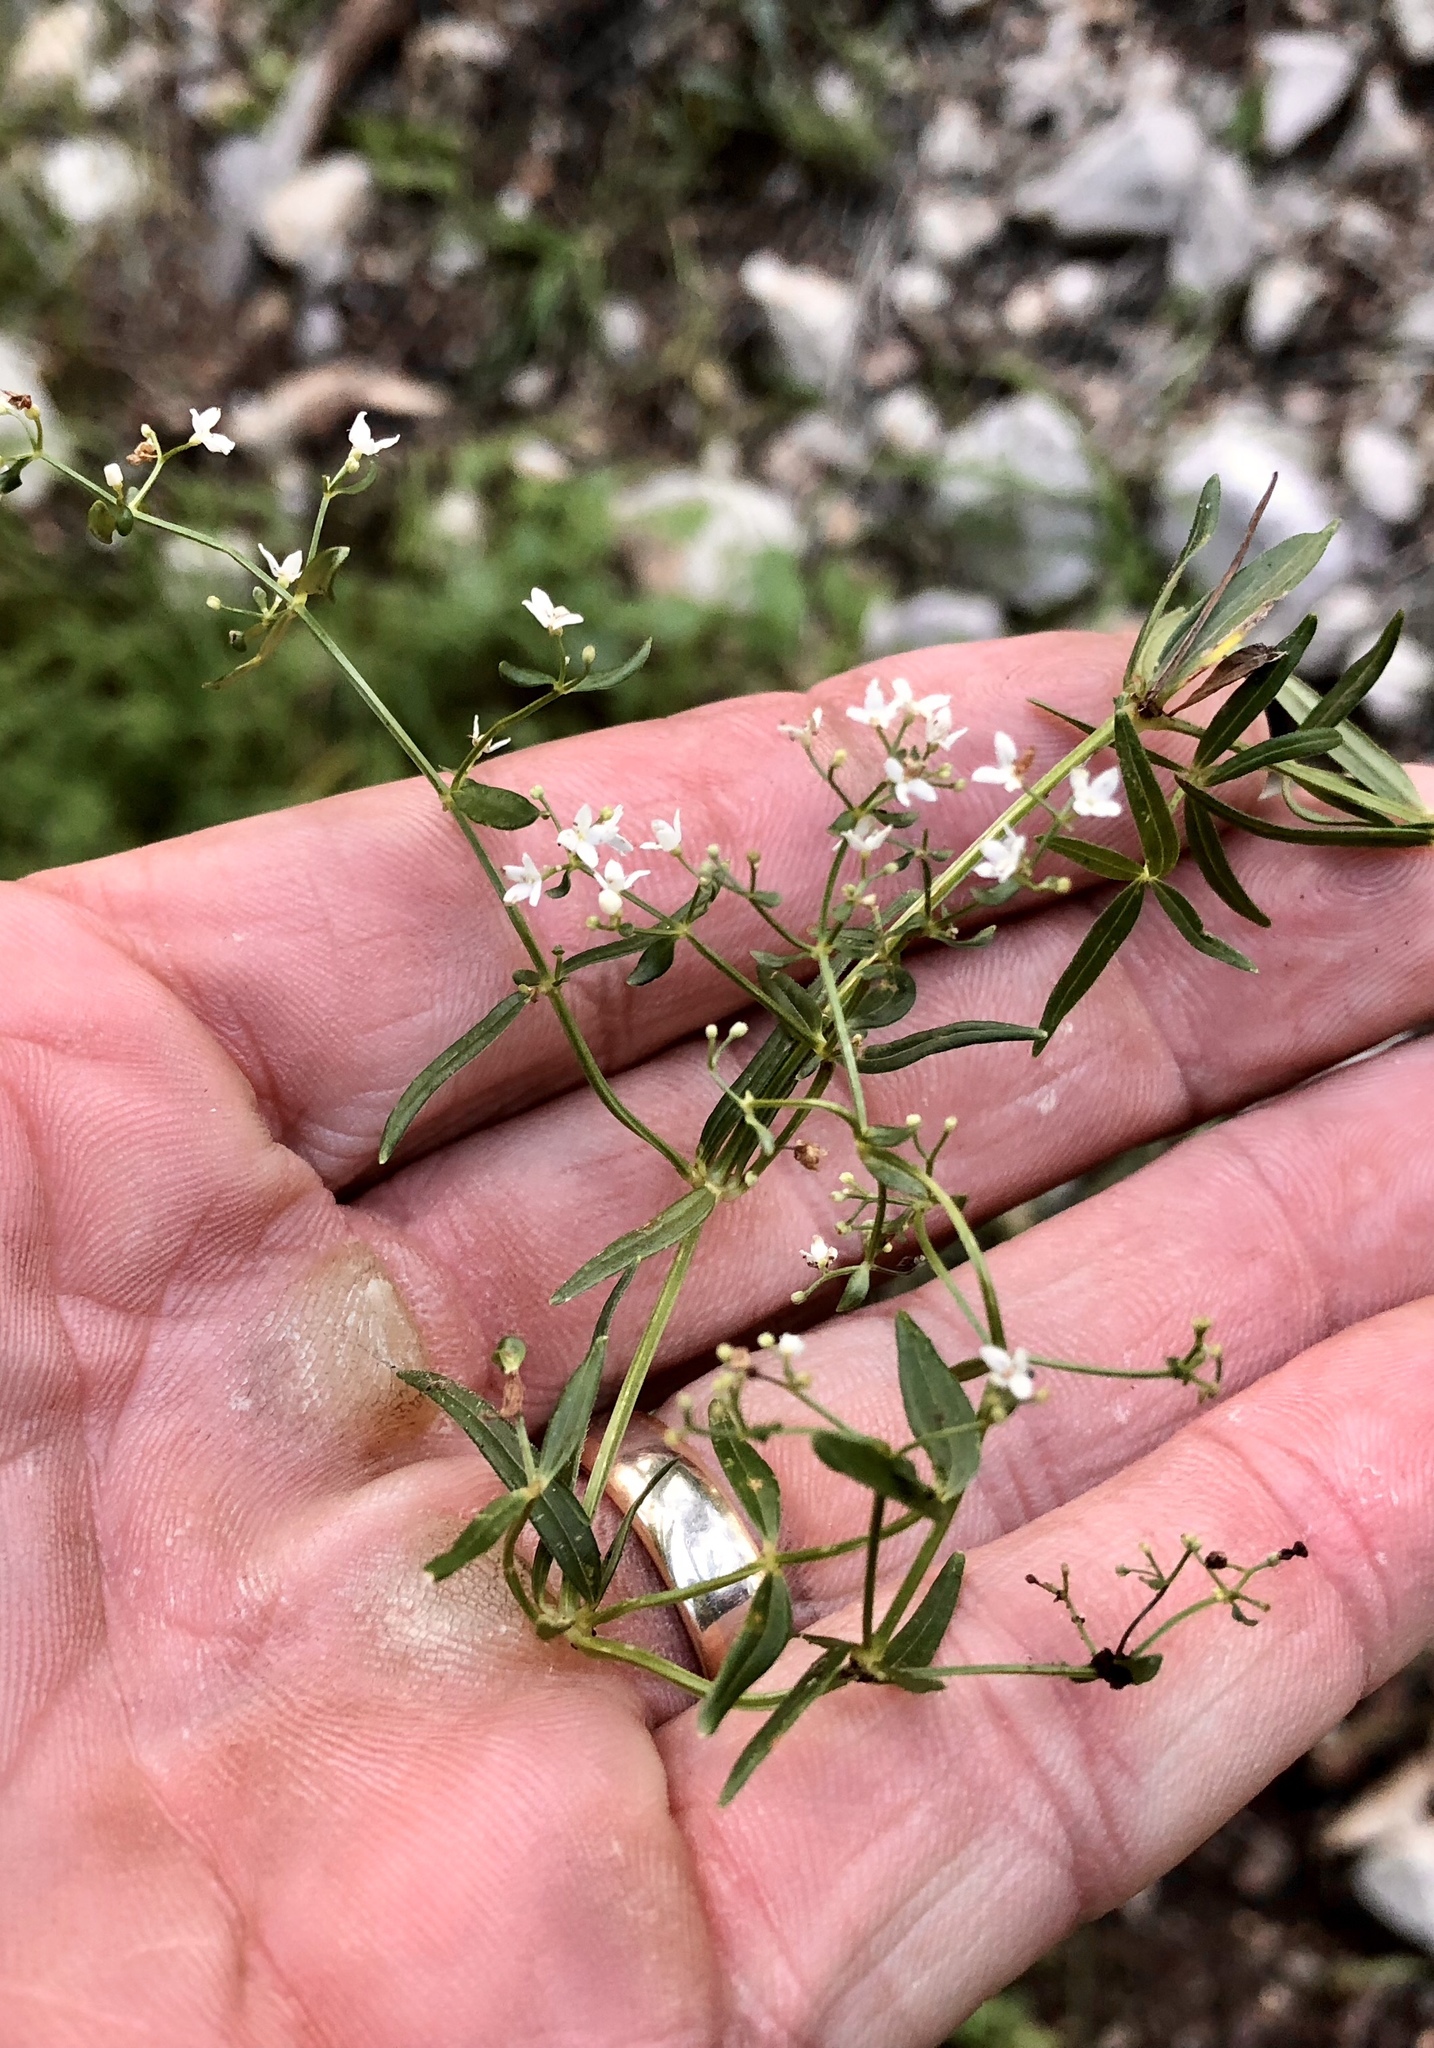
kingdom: Plantae
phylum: Tracheophyta
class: Magnoliopsida
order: Gentianales
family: Rubiaceae
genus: Galium
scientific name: Galium boreale
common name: Northern bedstraw
